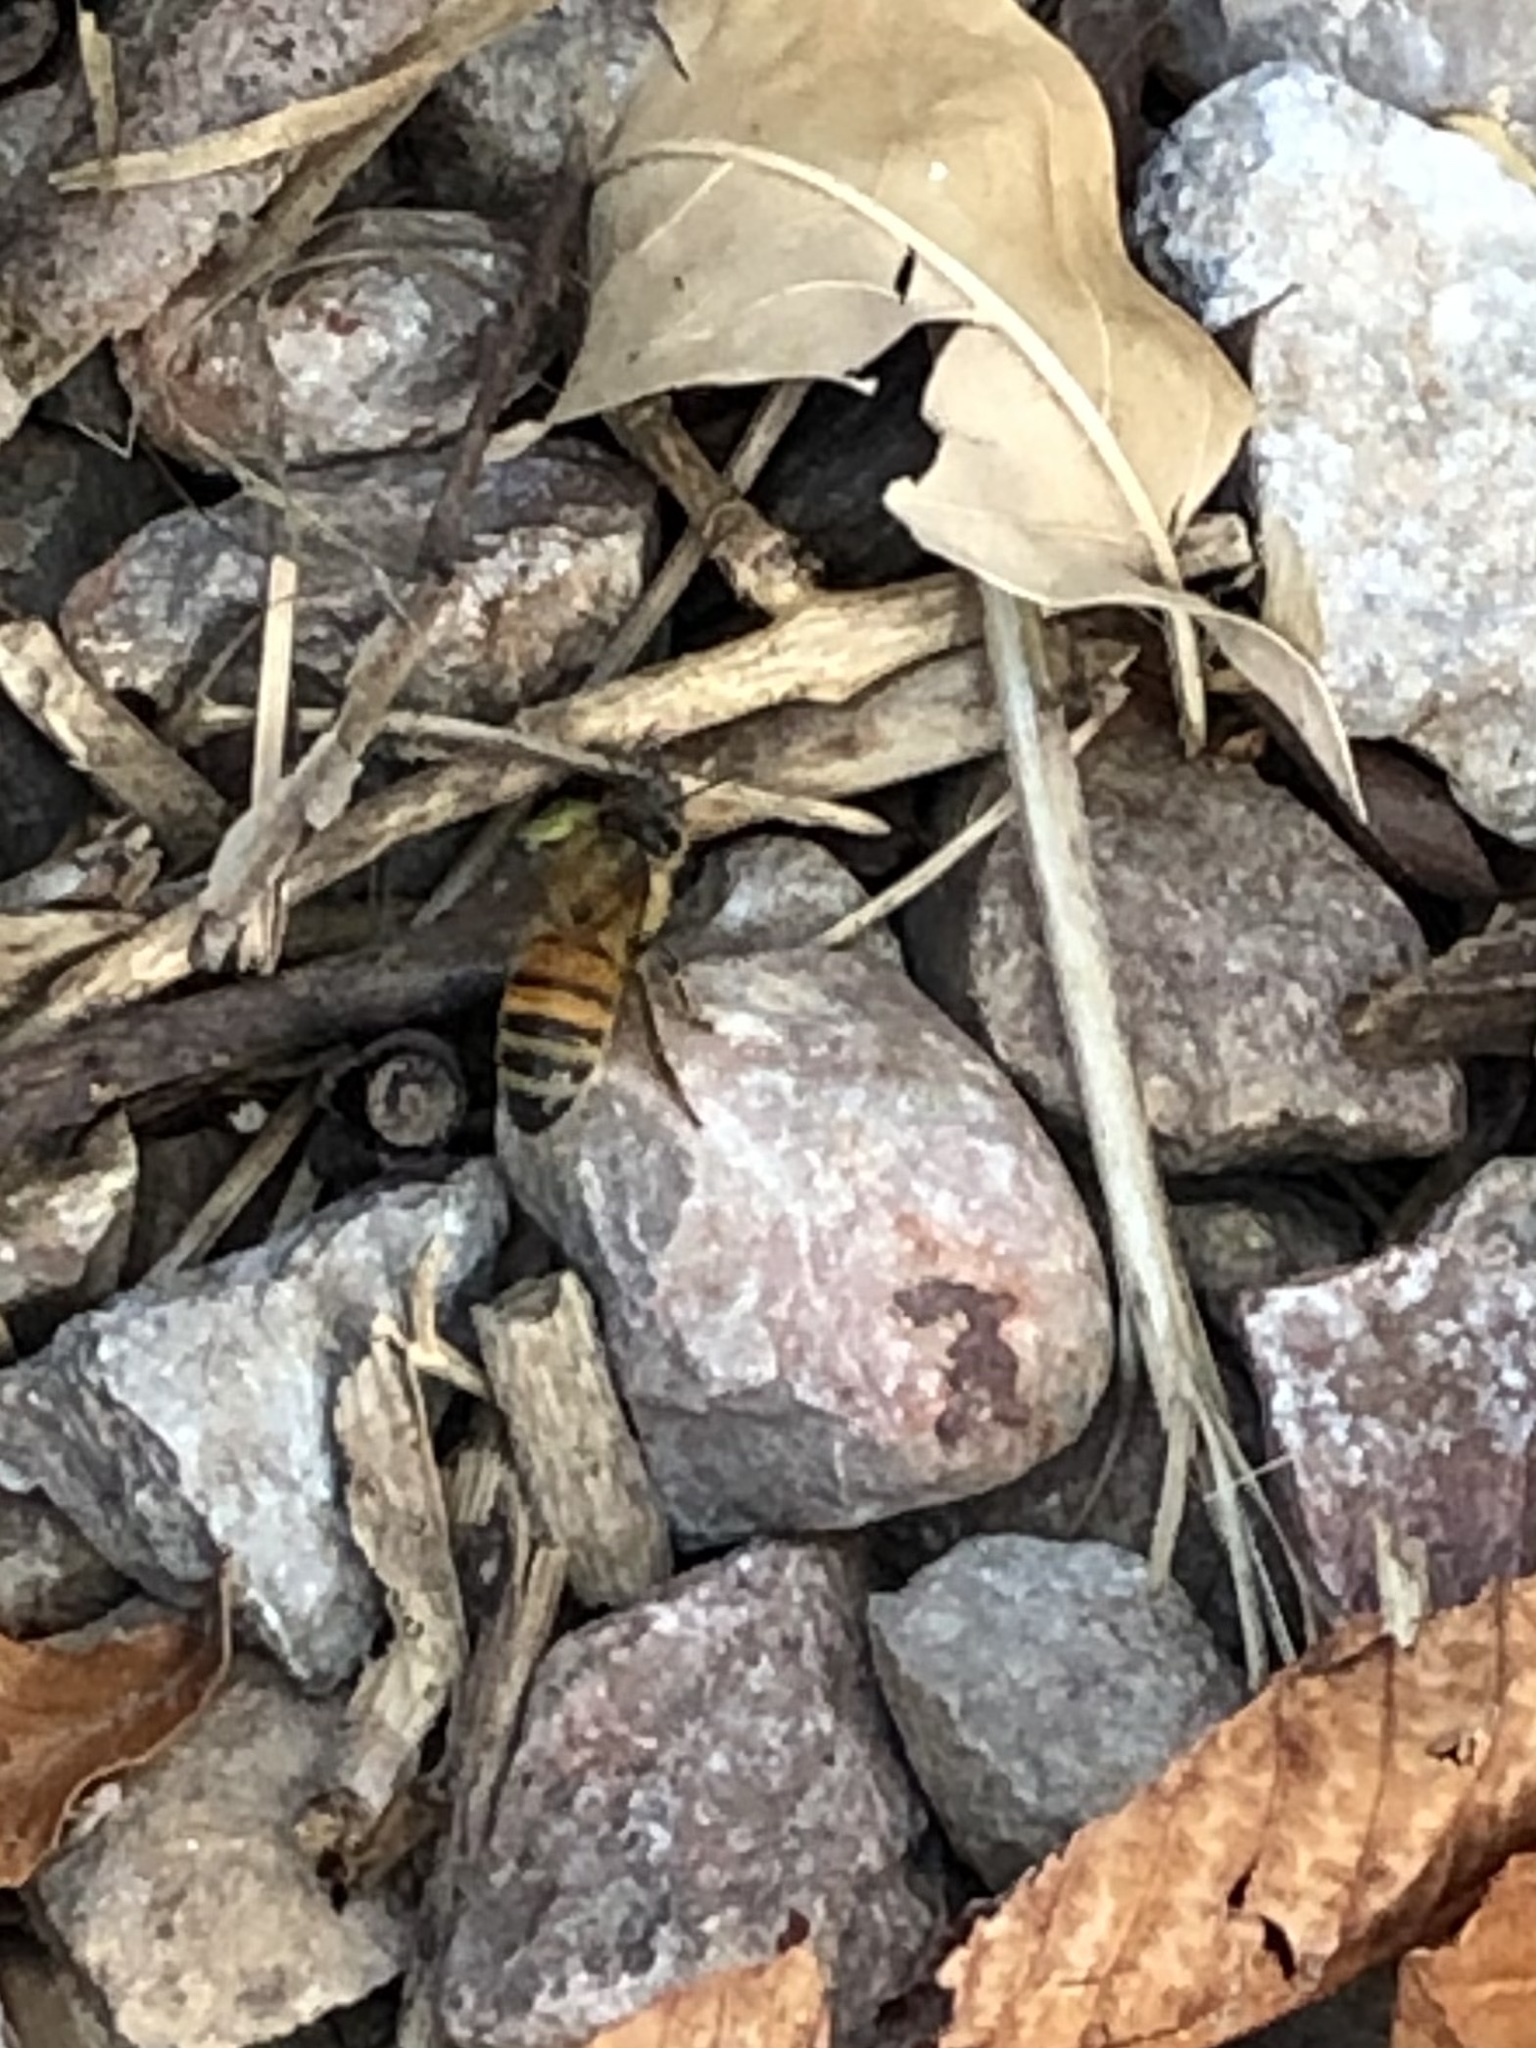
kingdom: Animalia
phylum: Arthropoda
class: Insecta
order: Hymenoptera
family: Apidae
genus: Apis
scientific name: Apis mellifera
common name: Honey bee
